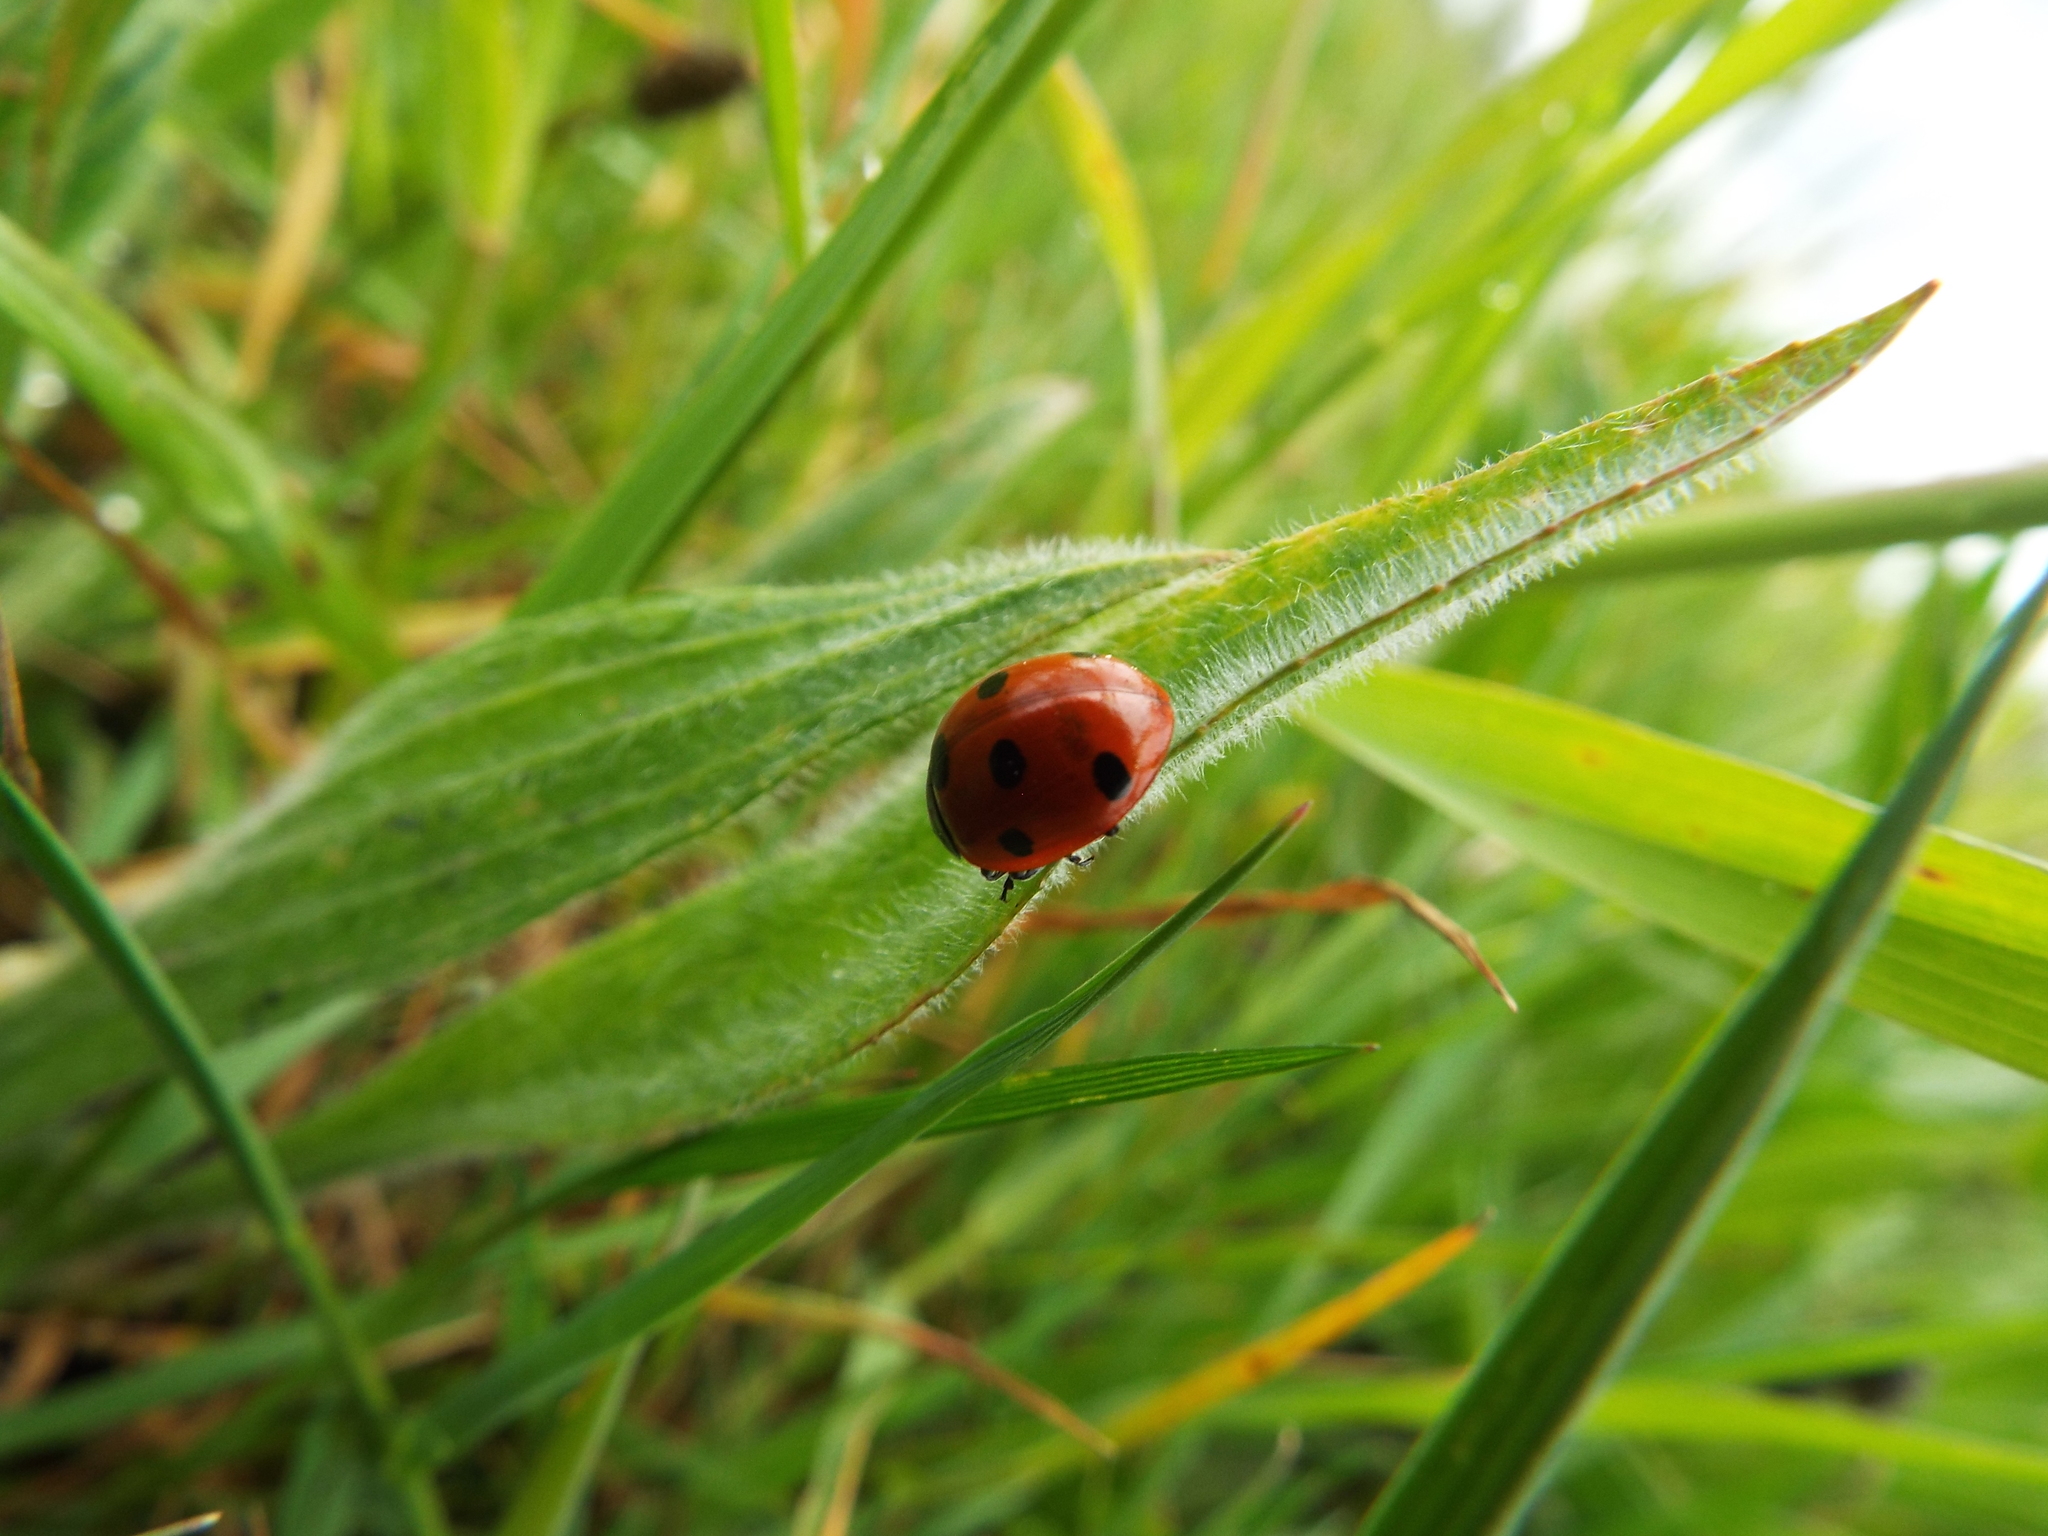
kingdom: Animalia
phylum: Arthropoda
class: Insecta
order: Coleoptera
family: Coccinellidae
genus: Coccinella
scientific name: Coccinella septempunctata
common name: Sevenspotted lady beetle
